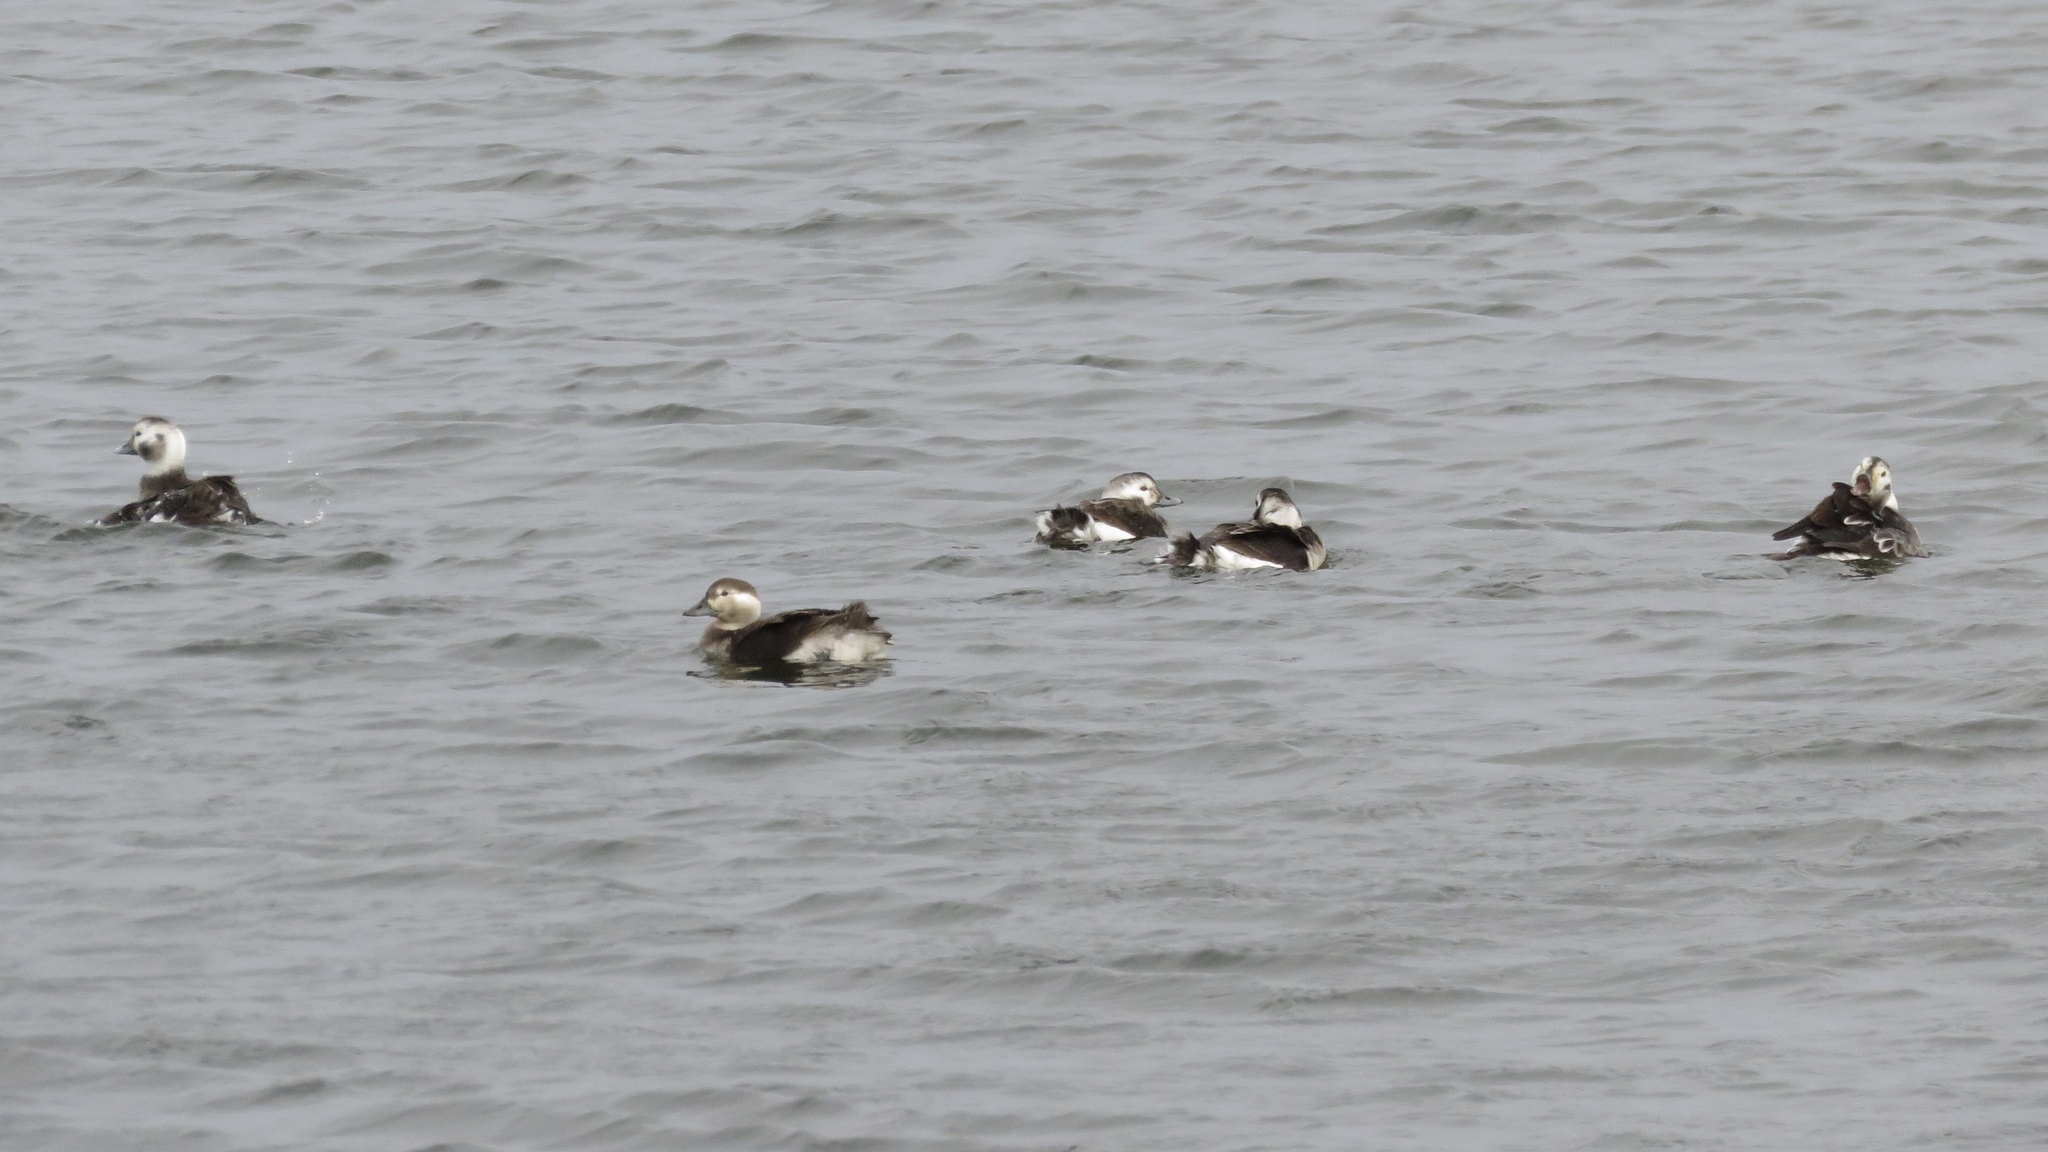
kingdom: Animalia
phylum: Chordata
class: Aves
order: Anseriformes
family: Anatidae
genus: Clangula
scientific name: Clangula hyemalis
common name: Long-tailed duck
